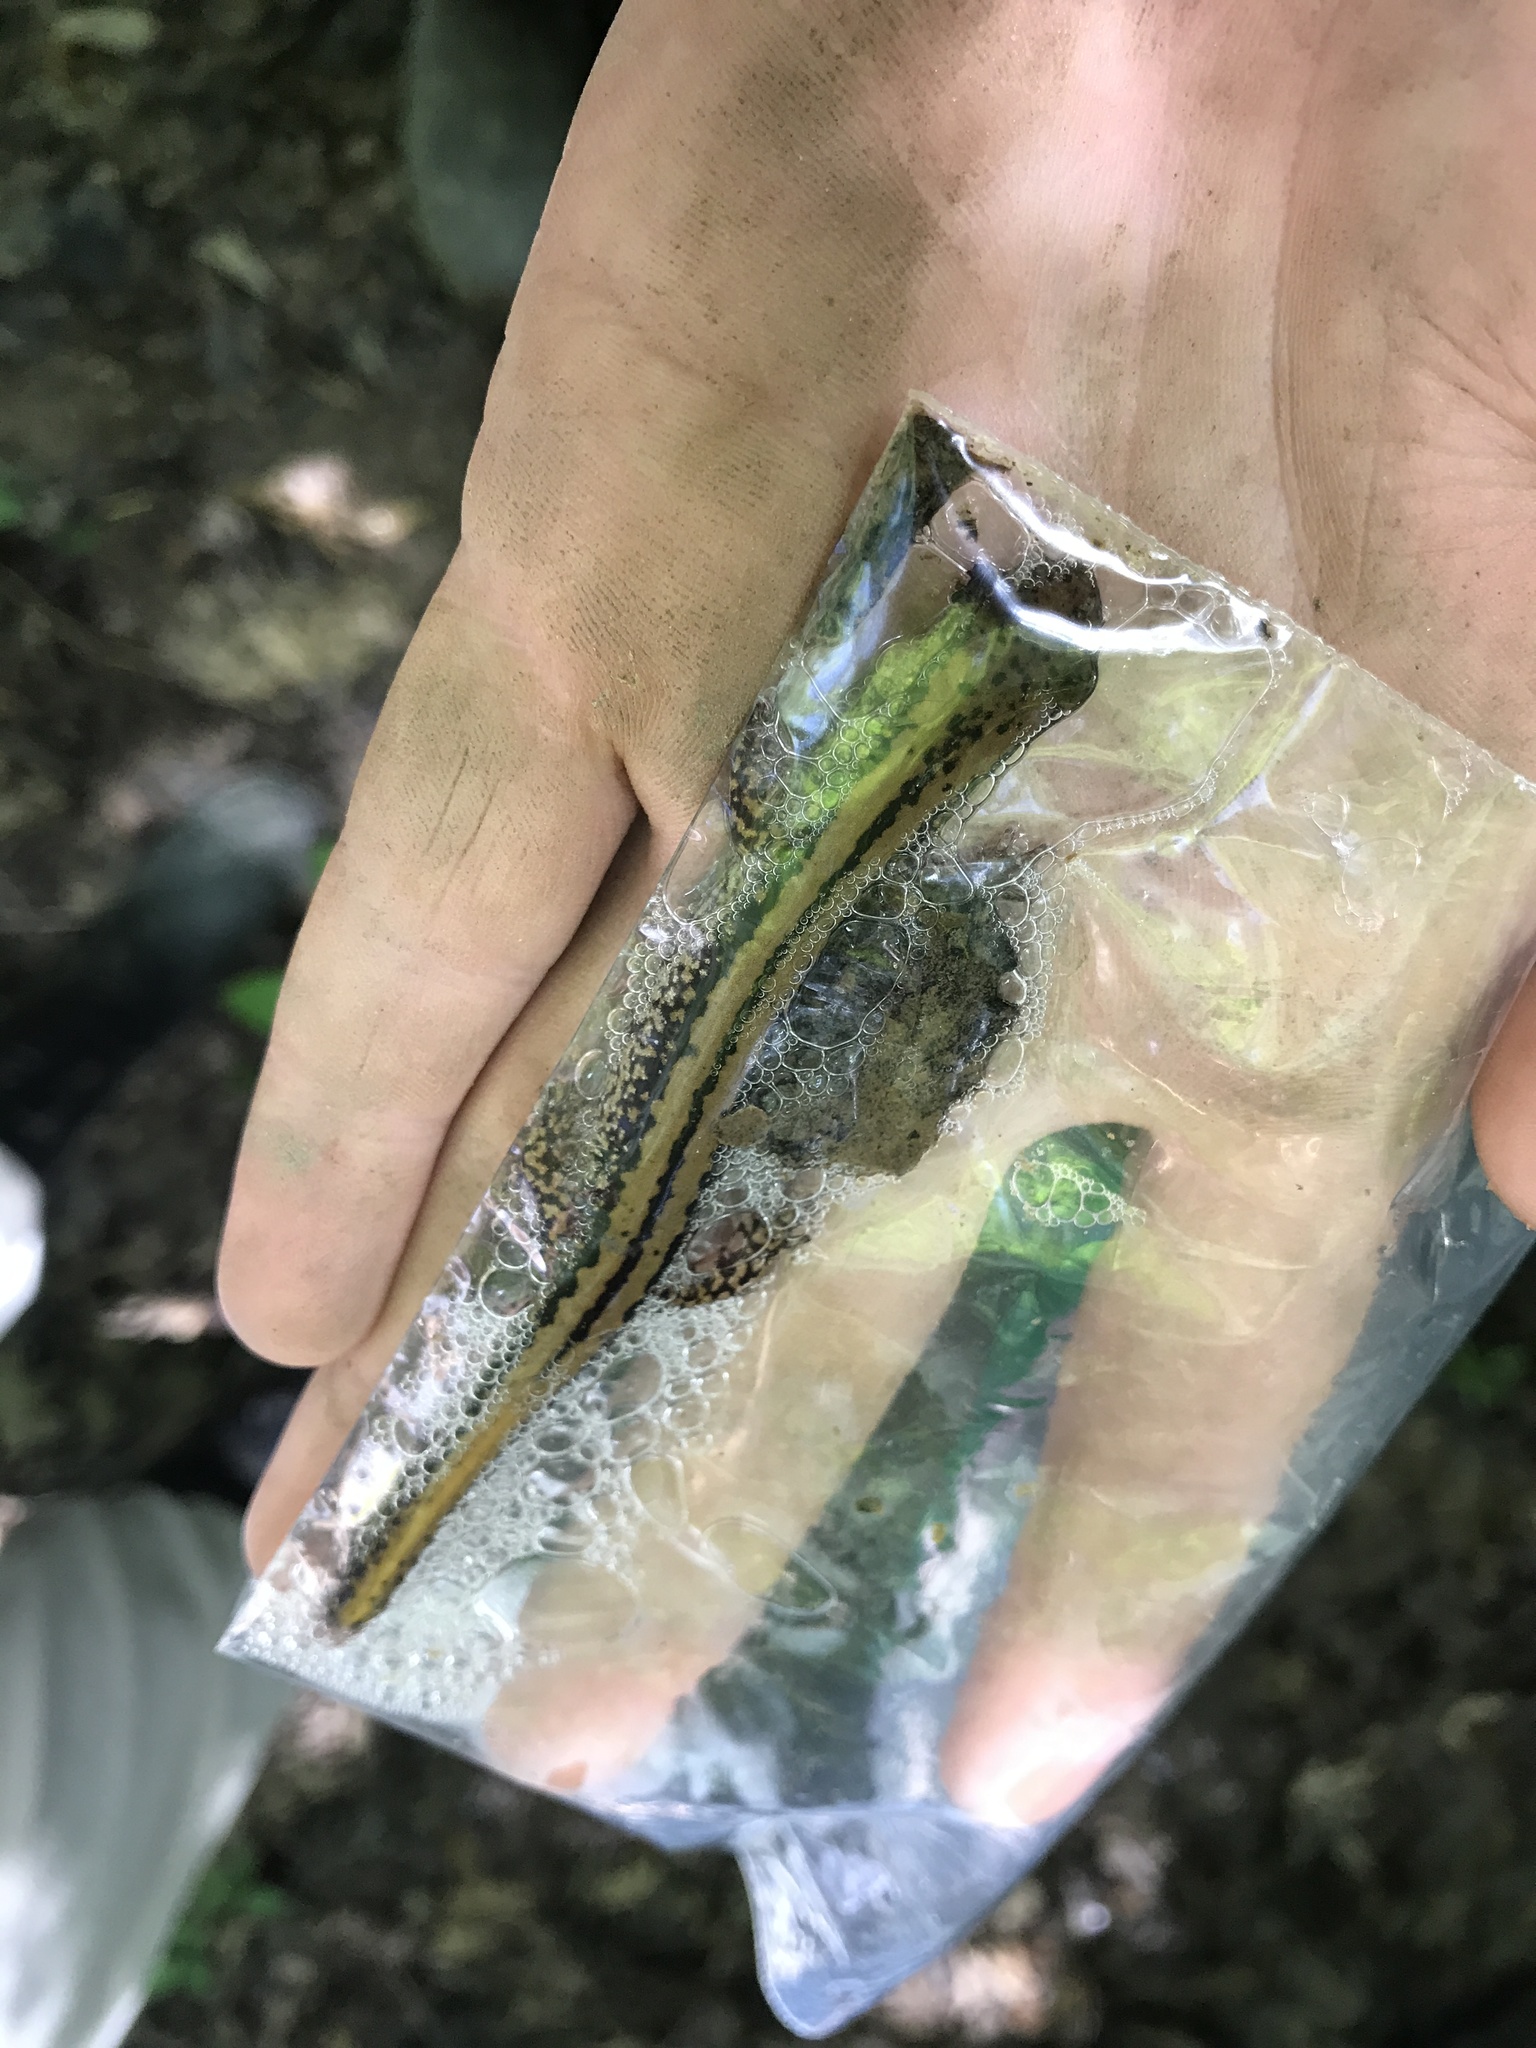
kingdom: Animalia
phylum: Chordata
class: Amphibia
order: Caudata
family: Plethodontidae
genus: Eurycea
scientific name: Eurycea guttolineata
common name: Three-lined salamander
